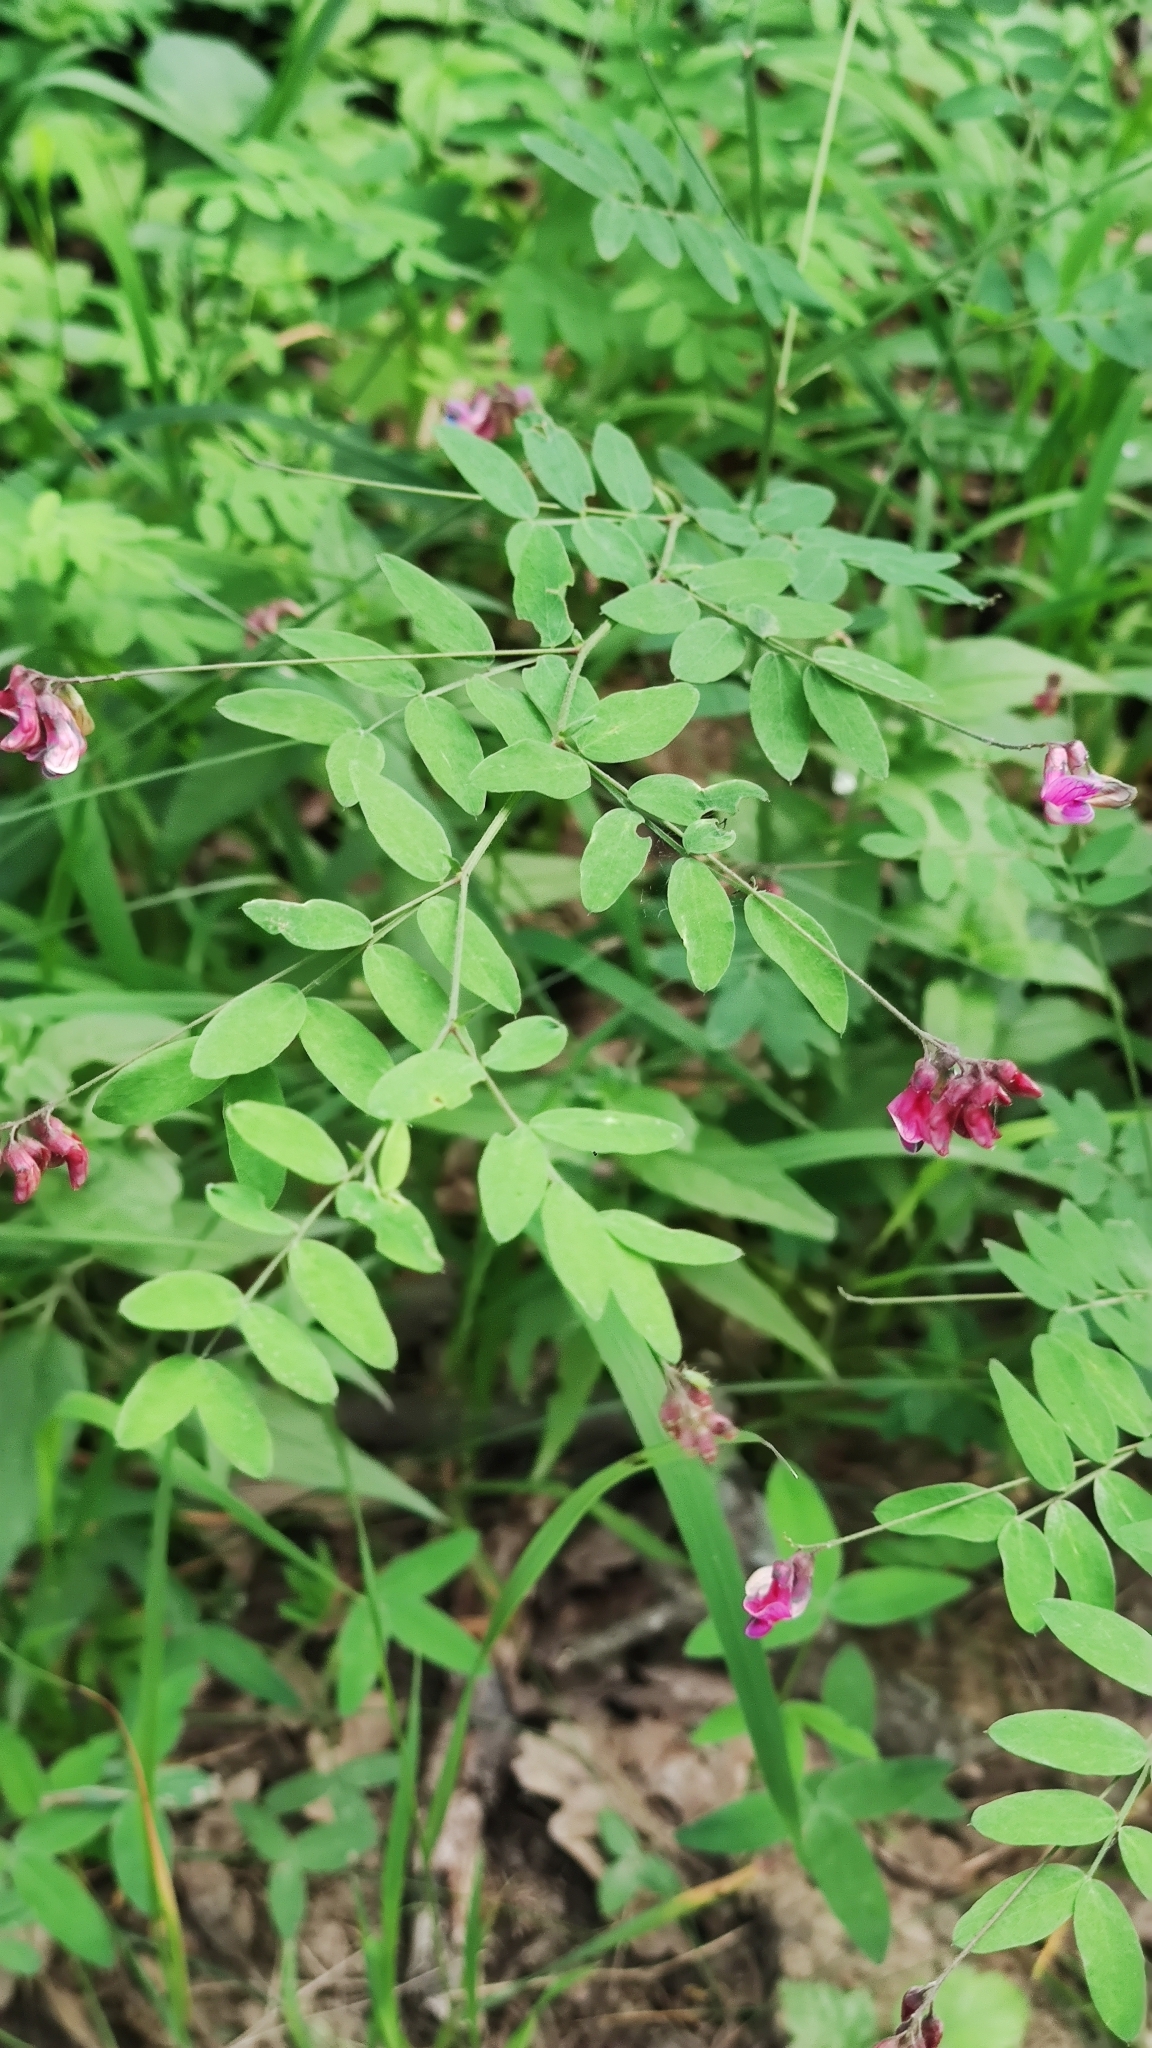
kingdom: Plantae
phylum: Tracheophyta
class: Magnoliopsida
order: Fabales
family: Fabaceae
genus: Lathyrus
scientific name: Lathyrus niger
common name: Black pea
